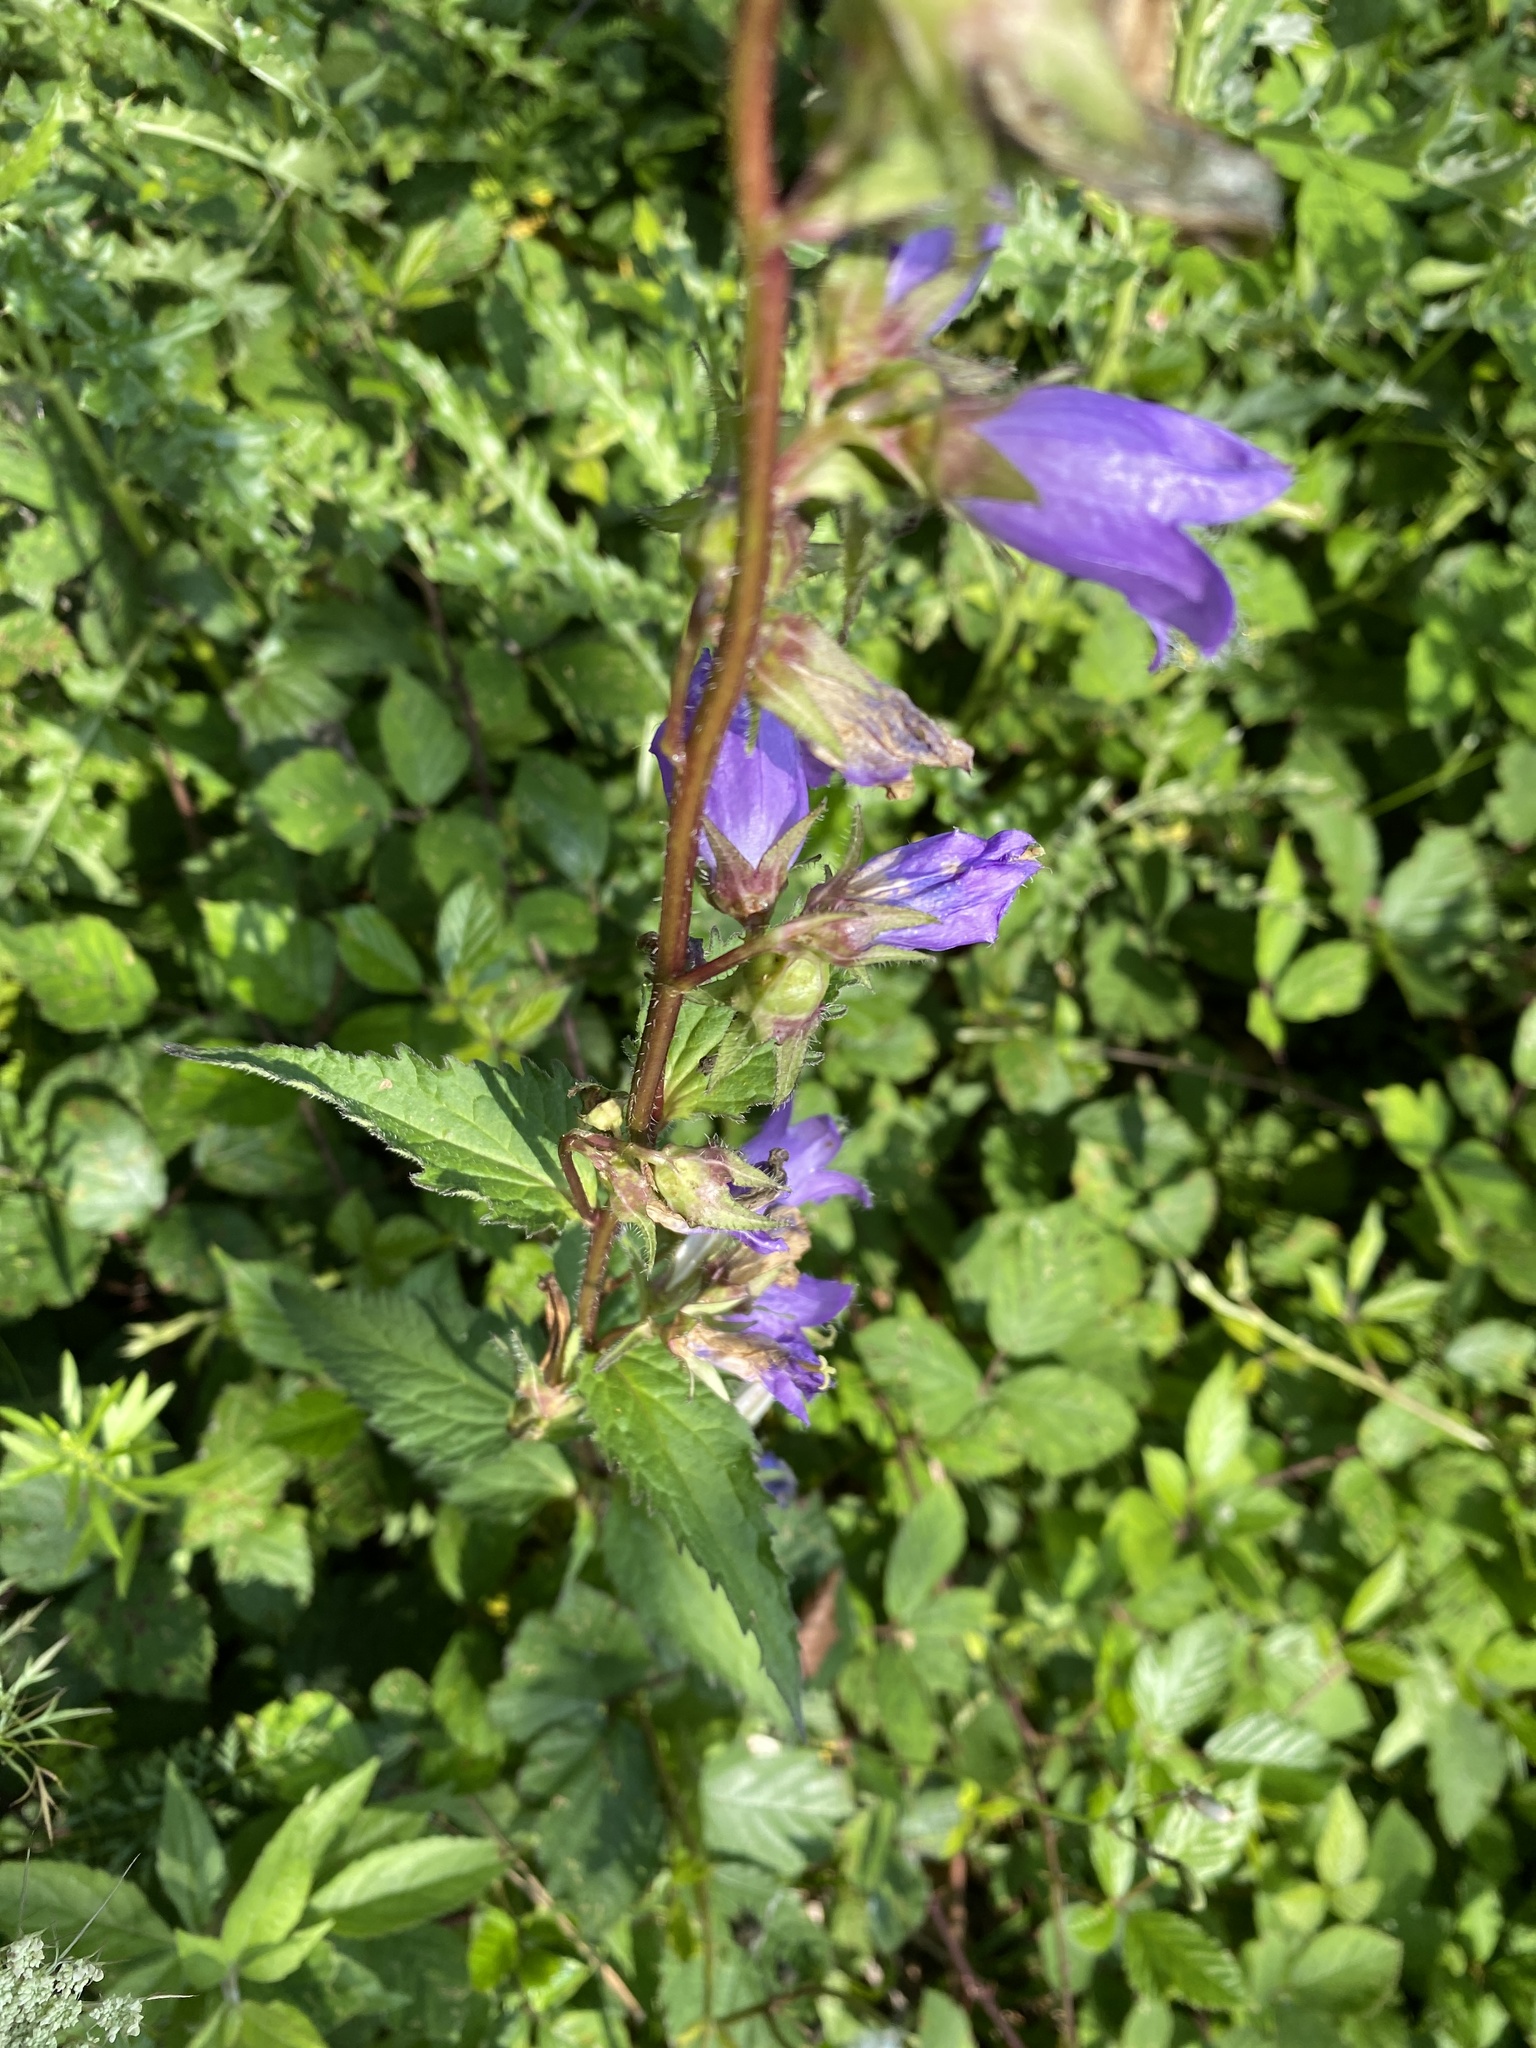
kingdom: Plantae
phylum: Tracheophyta
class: Magnoliopsida
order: Asterales
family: Campanulaceae
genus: Campanula
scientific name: Campanula trachelium
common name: Nettle-leaved bellflower
